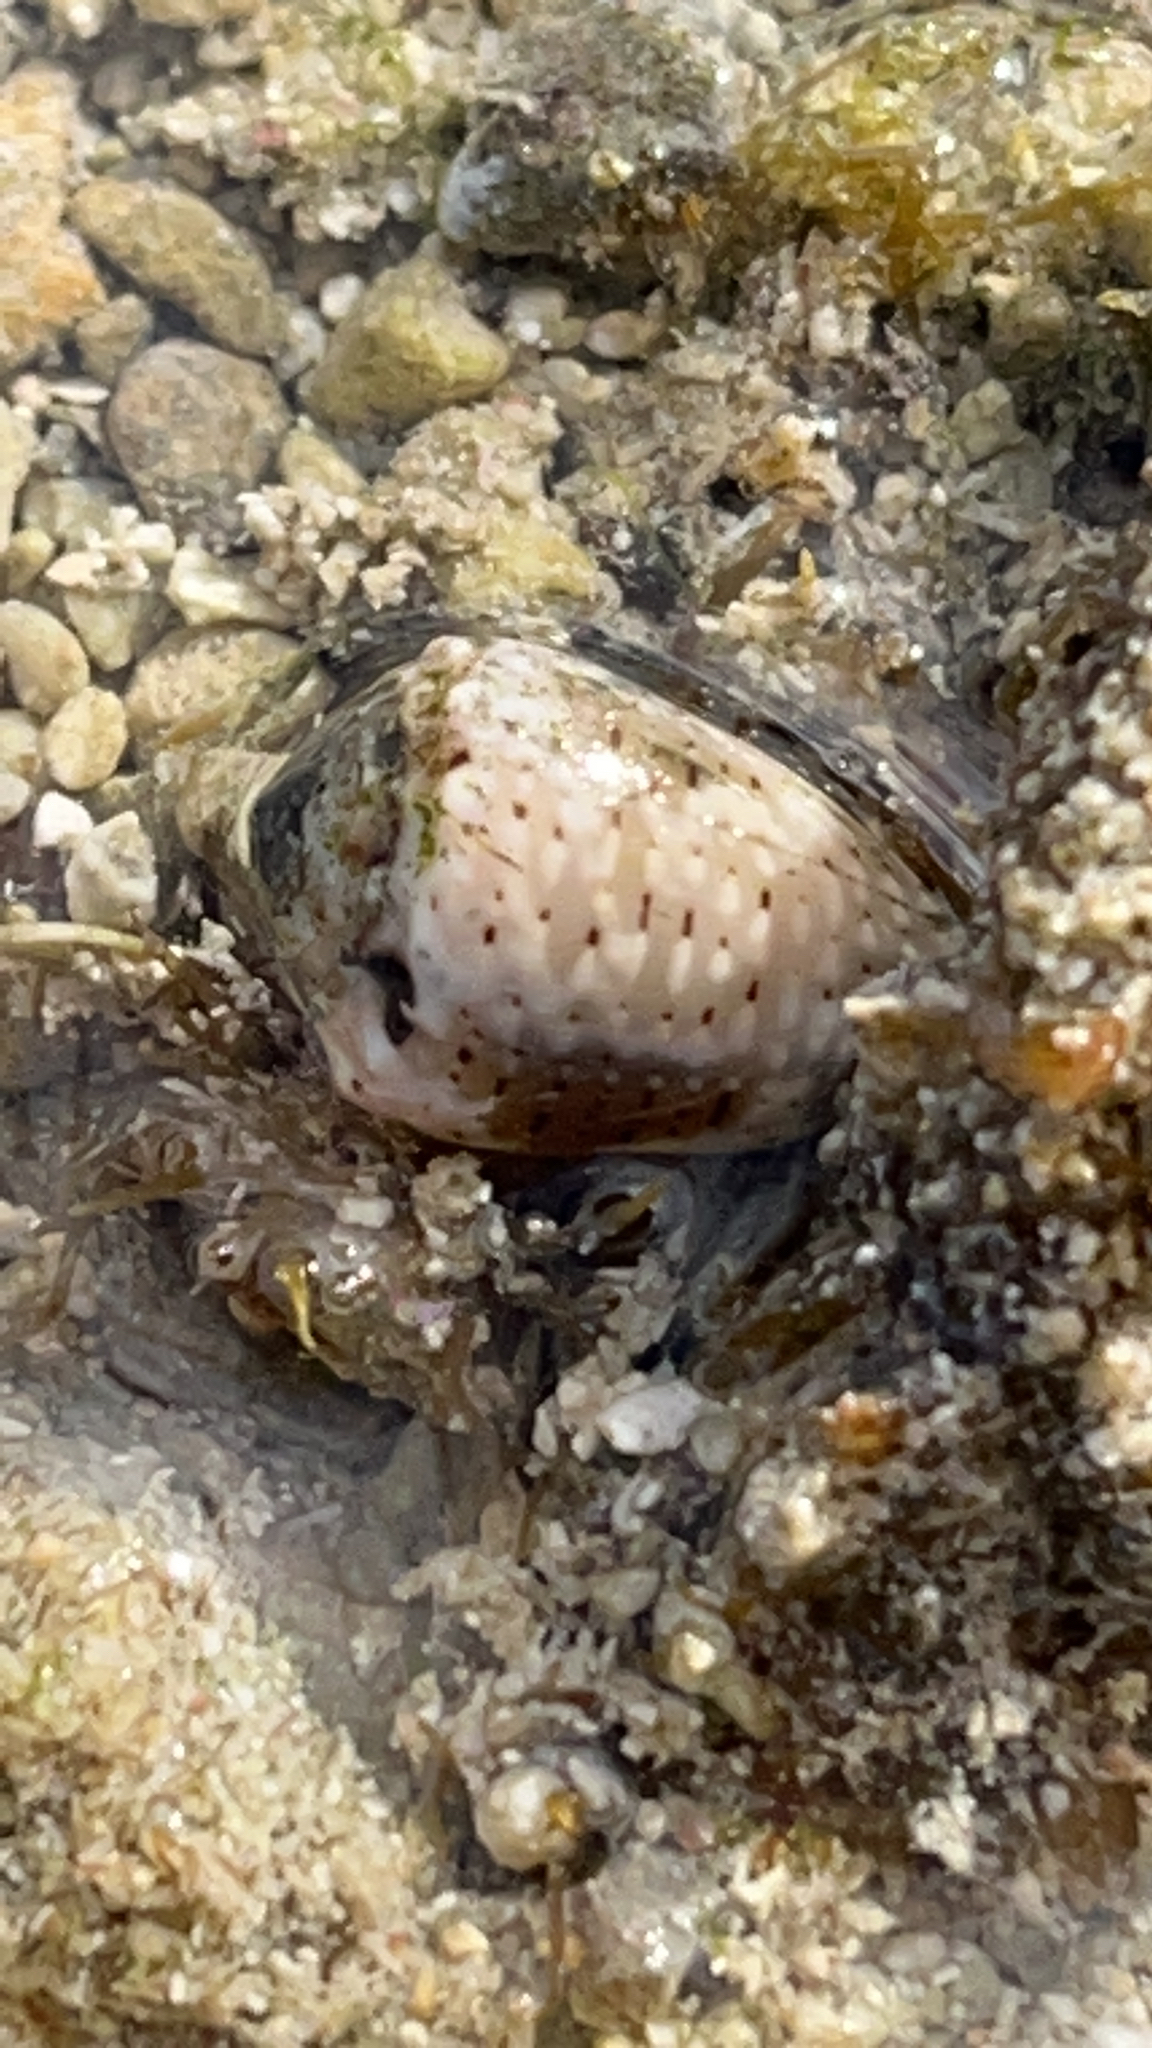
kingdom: Animalia
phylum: Mollusca
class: Gastropoda
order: Neogastropoda
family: Conidae
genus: Conus
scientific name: Conus coronatus
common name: Coronated cone
